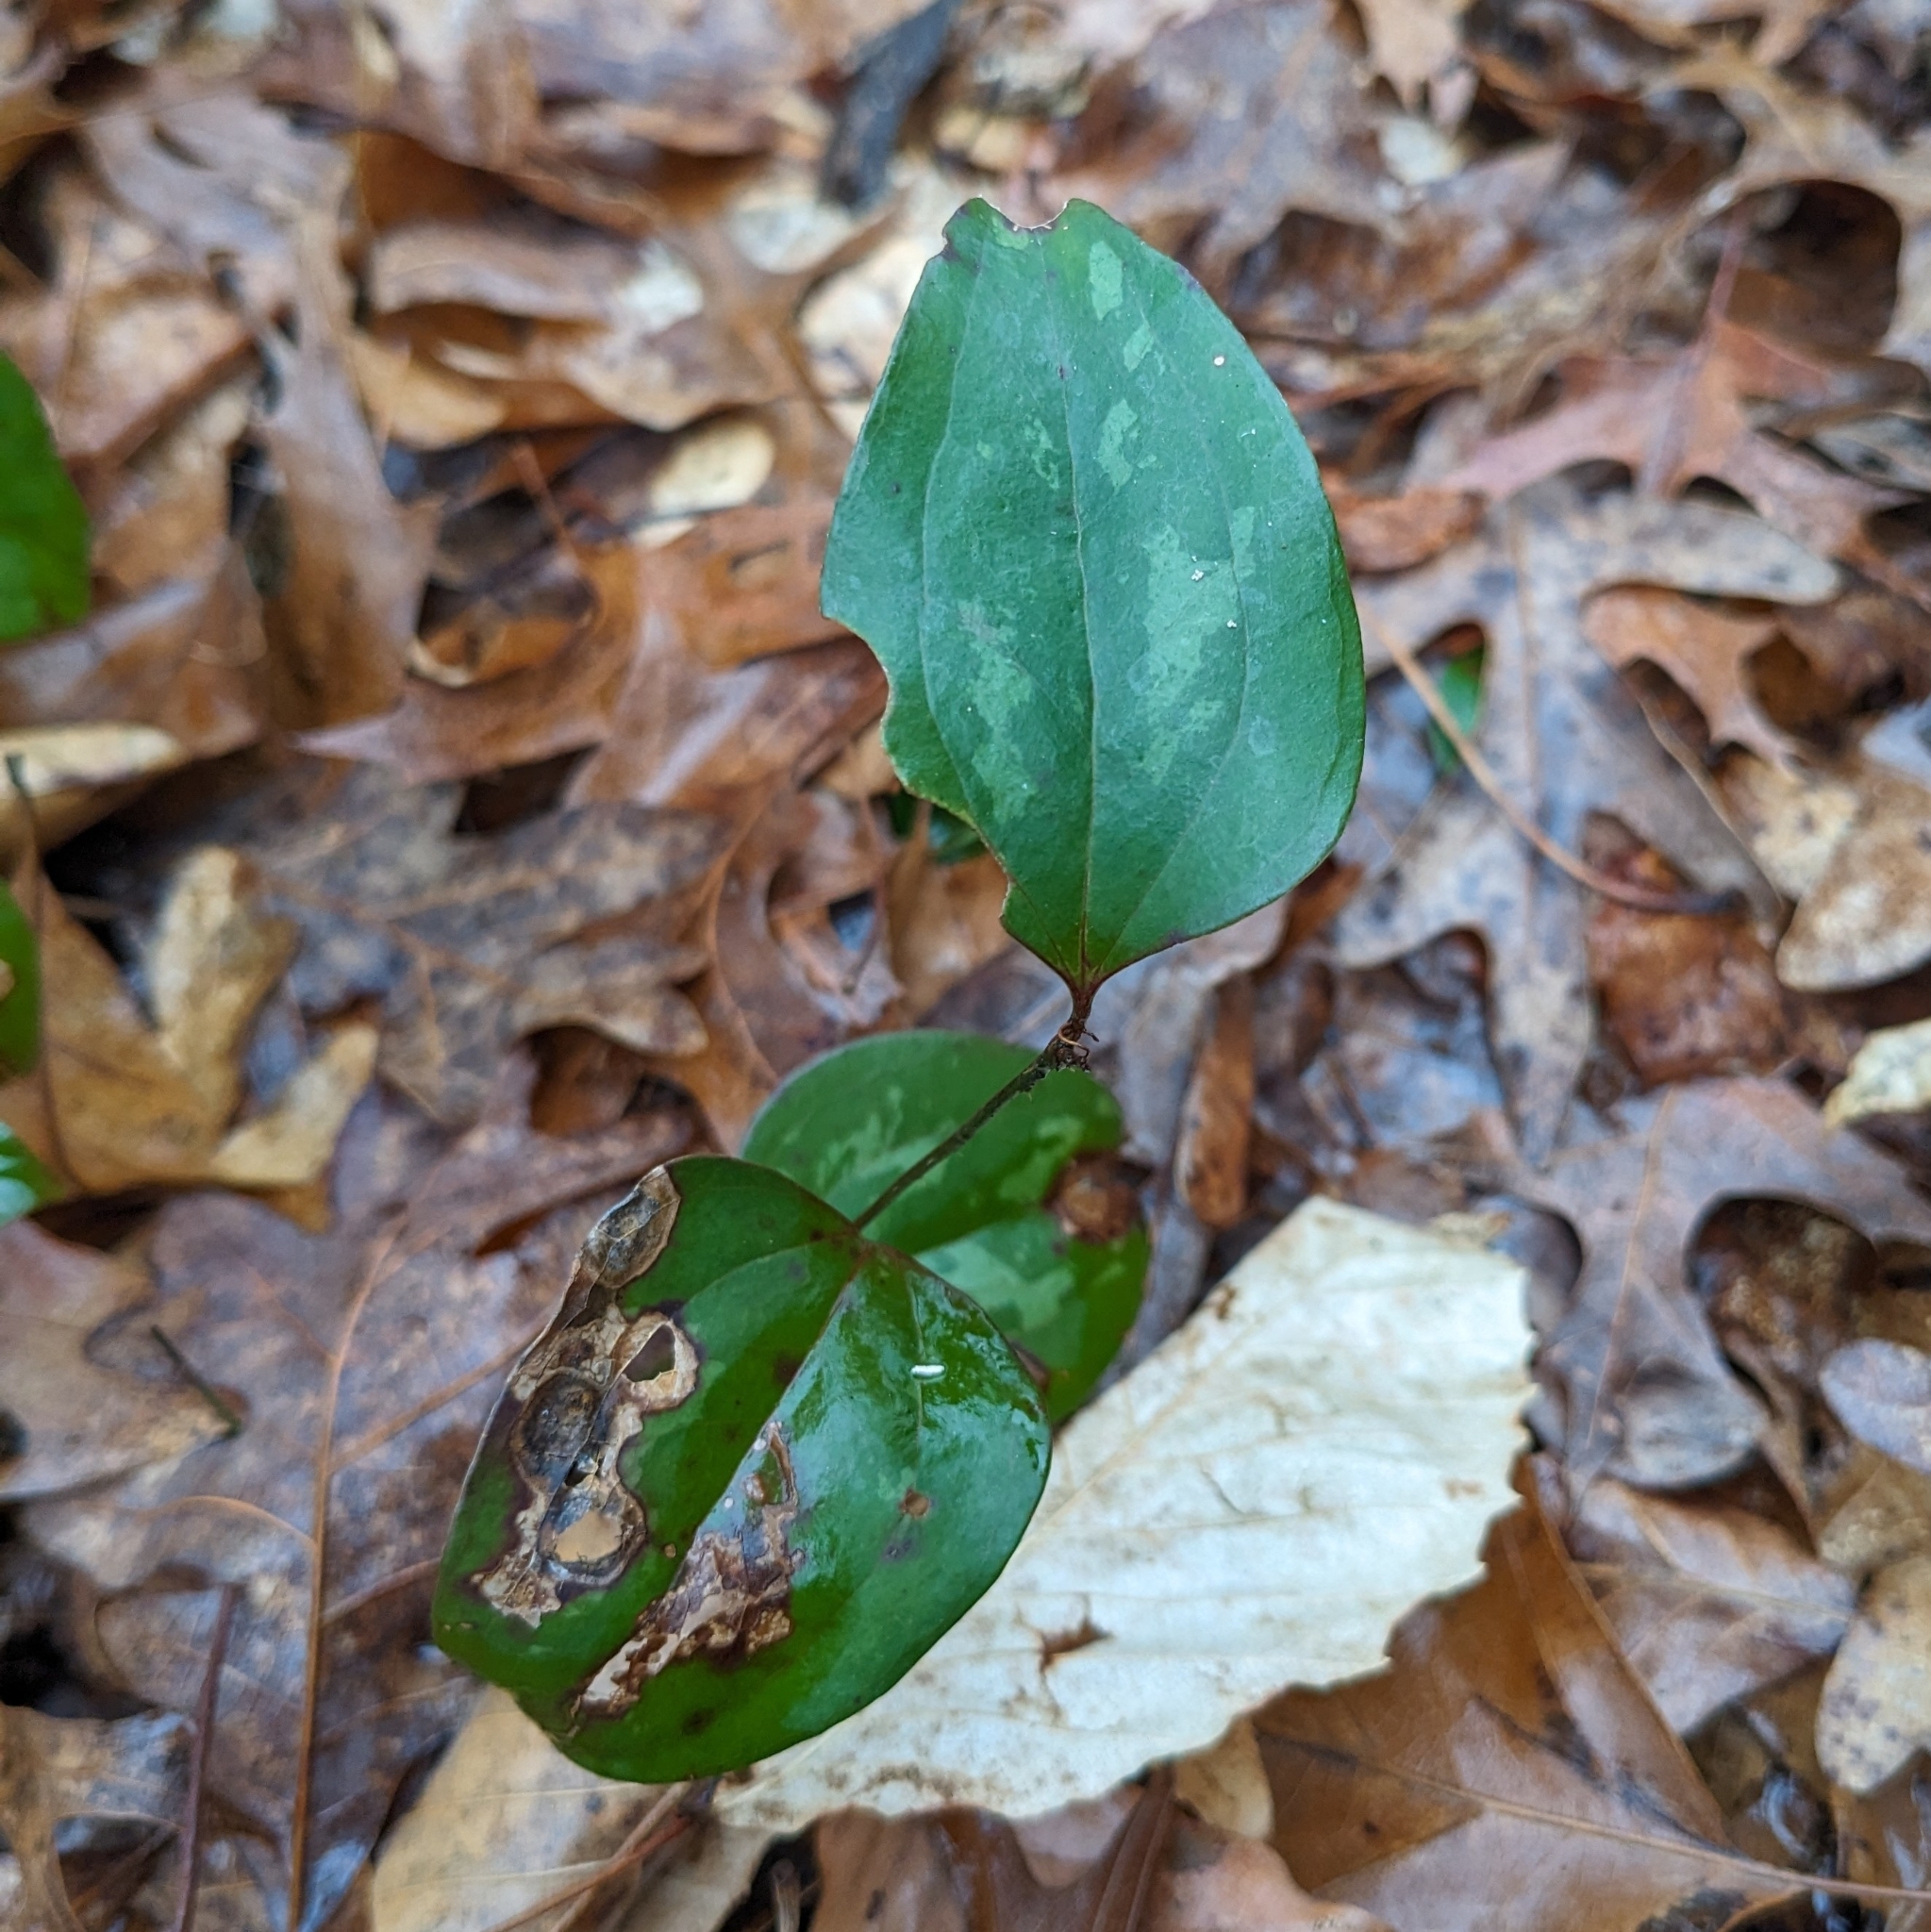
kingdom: Plantae
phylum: Tracheophyta
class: Liliopsida
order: Liliales
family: Smilacaceae
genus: Smilax
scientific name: Smilax glauca
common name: Cat greenbrier
